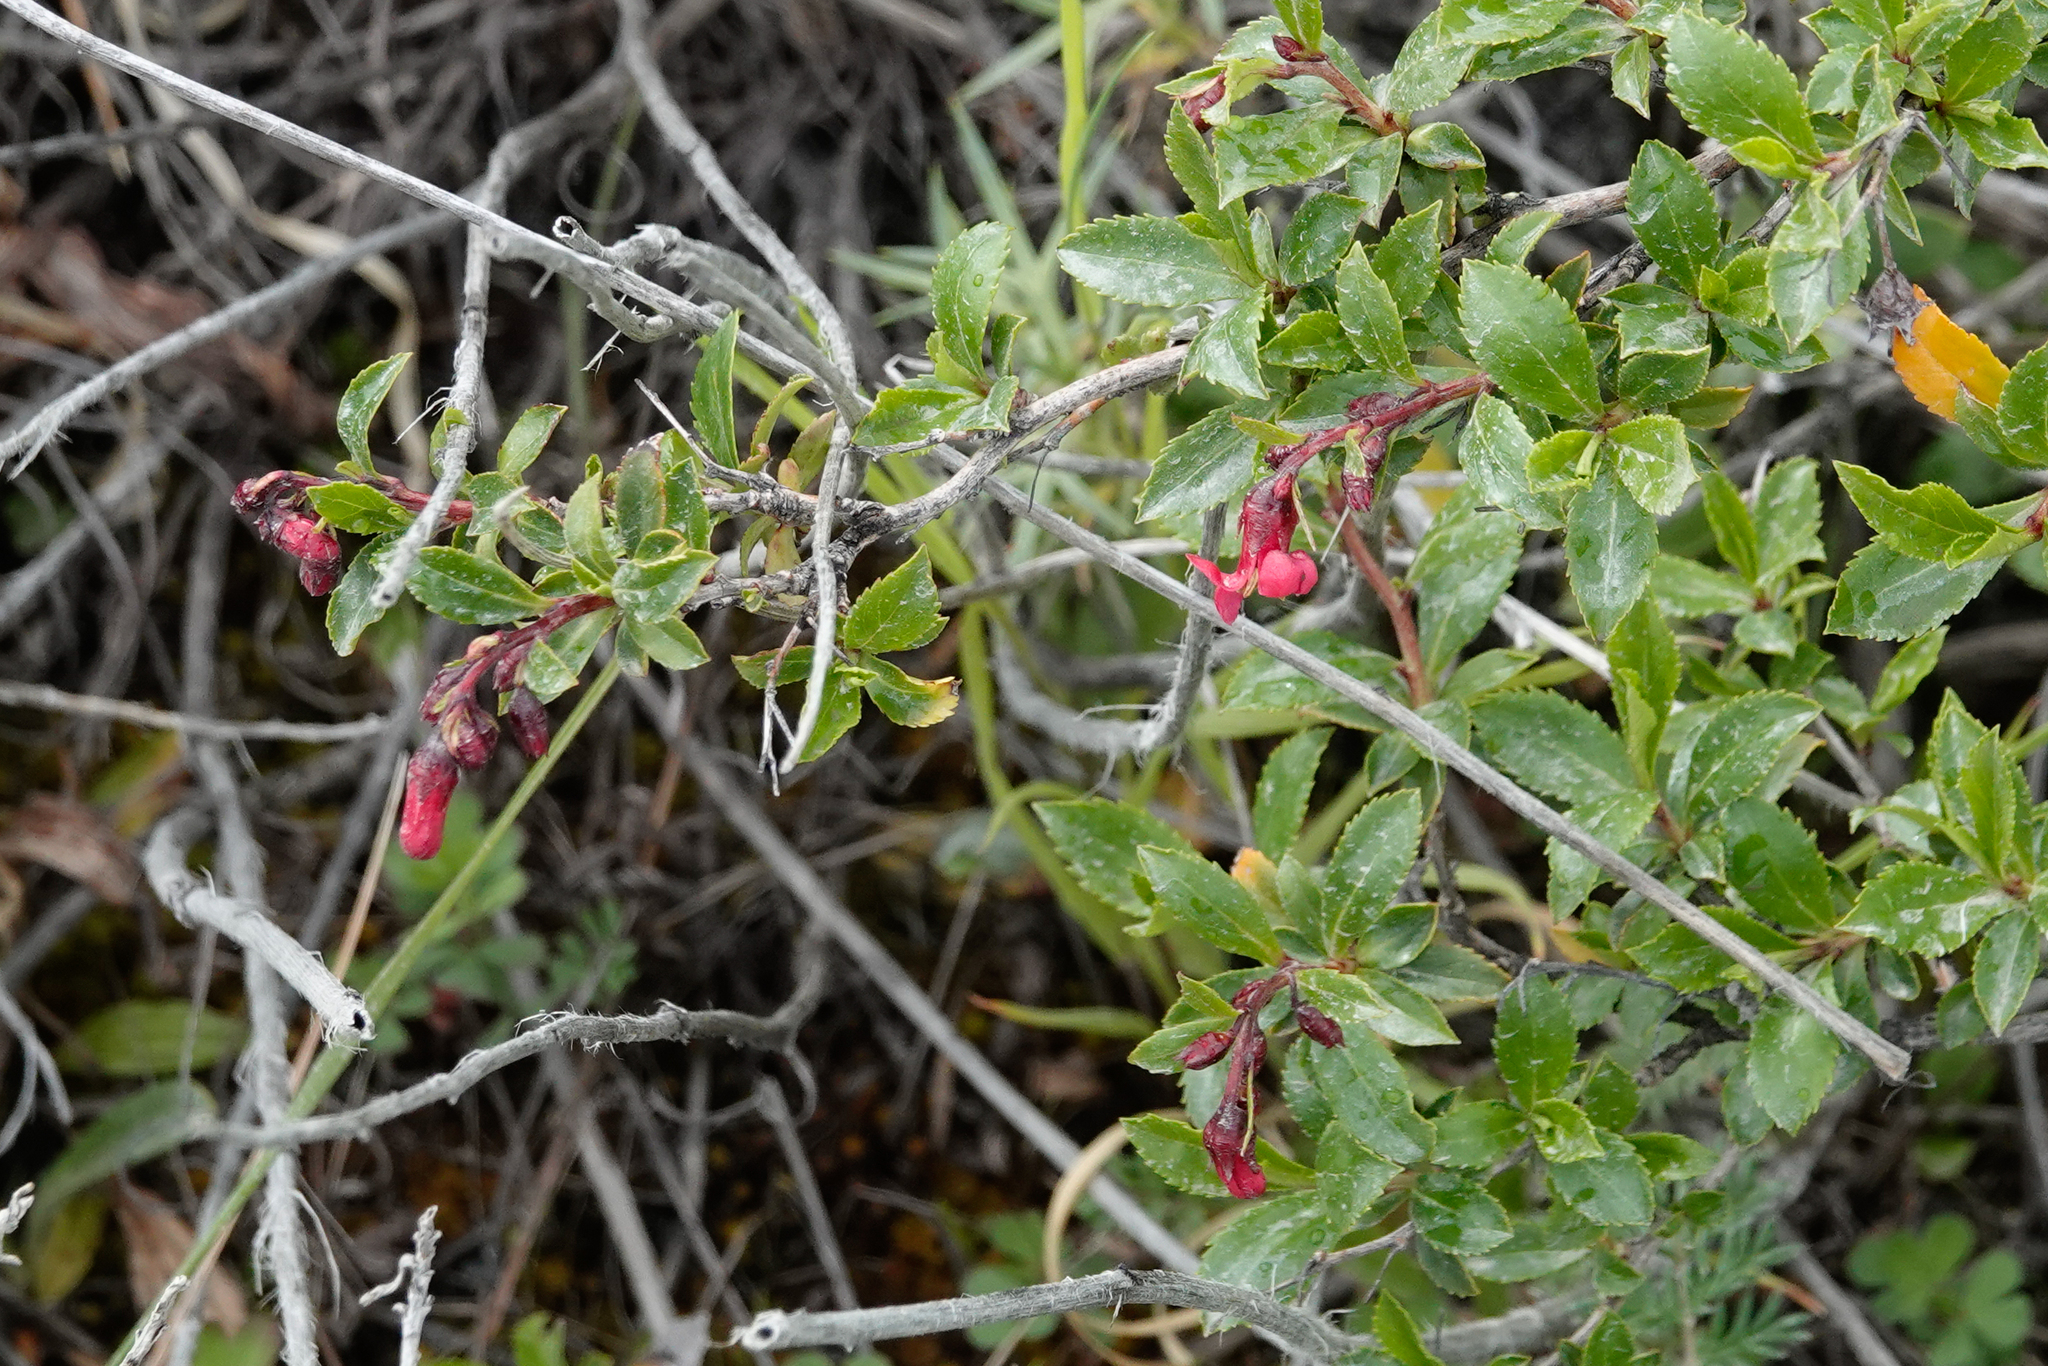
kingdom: Plantae
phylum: Tracheophyta
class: Magnoliopsida
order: Escalloniales
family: Escalloniaceae
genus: Escallonia
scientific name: Escallonia rubra
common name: Redclaws
